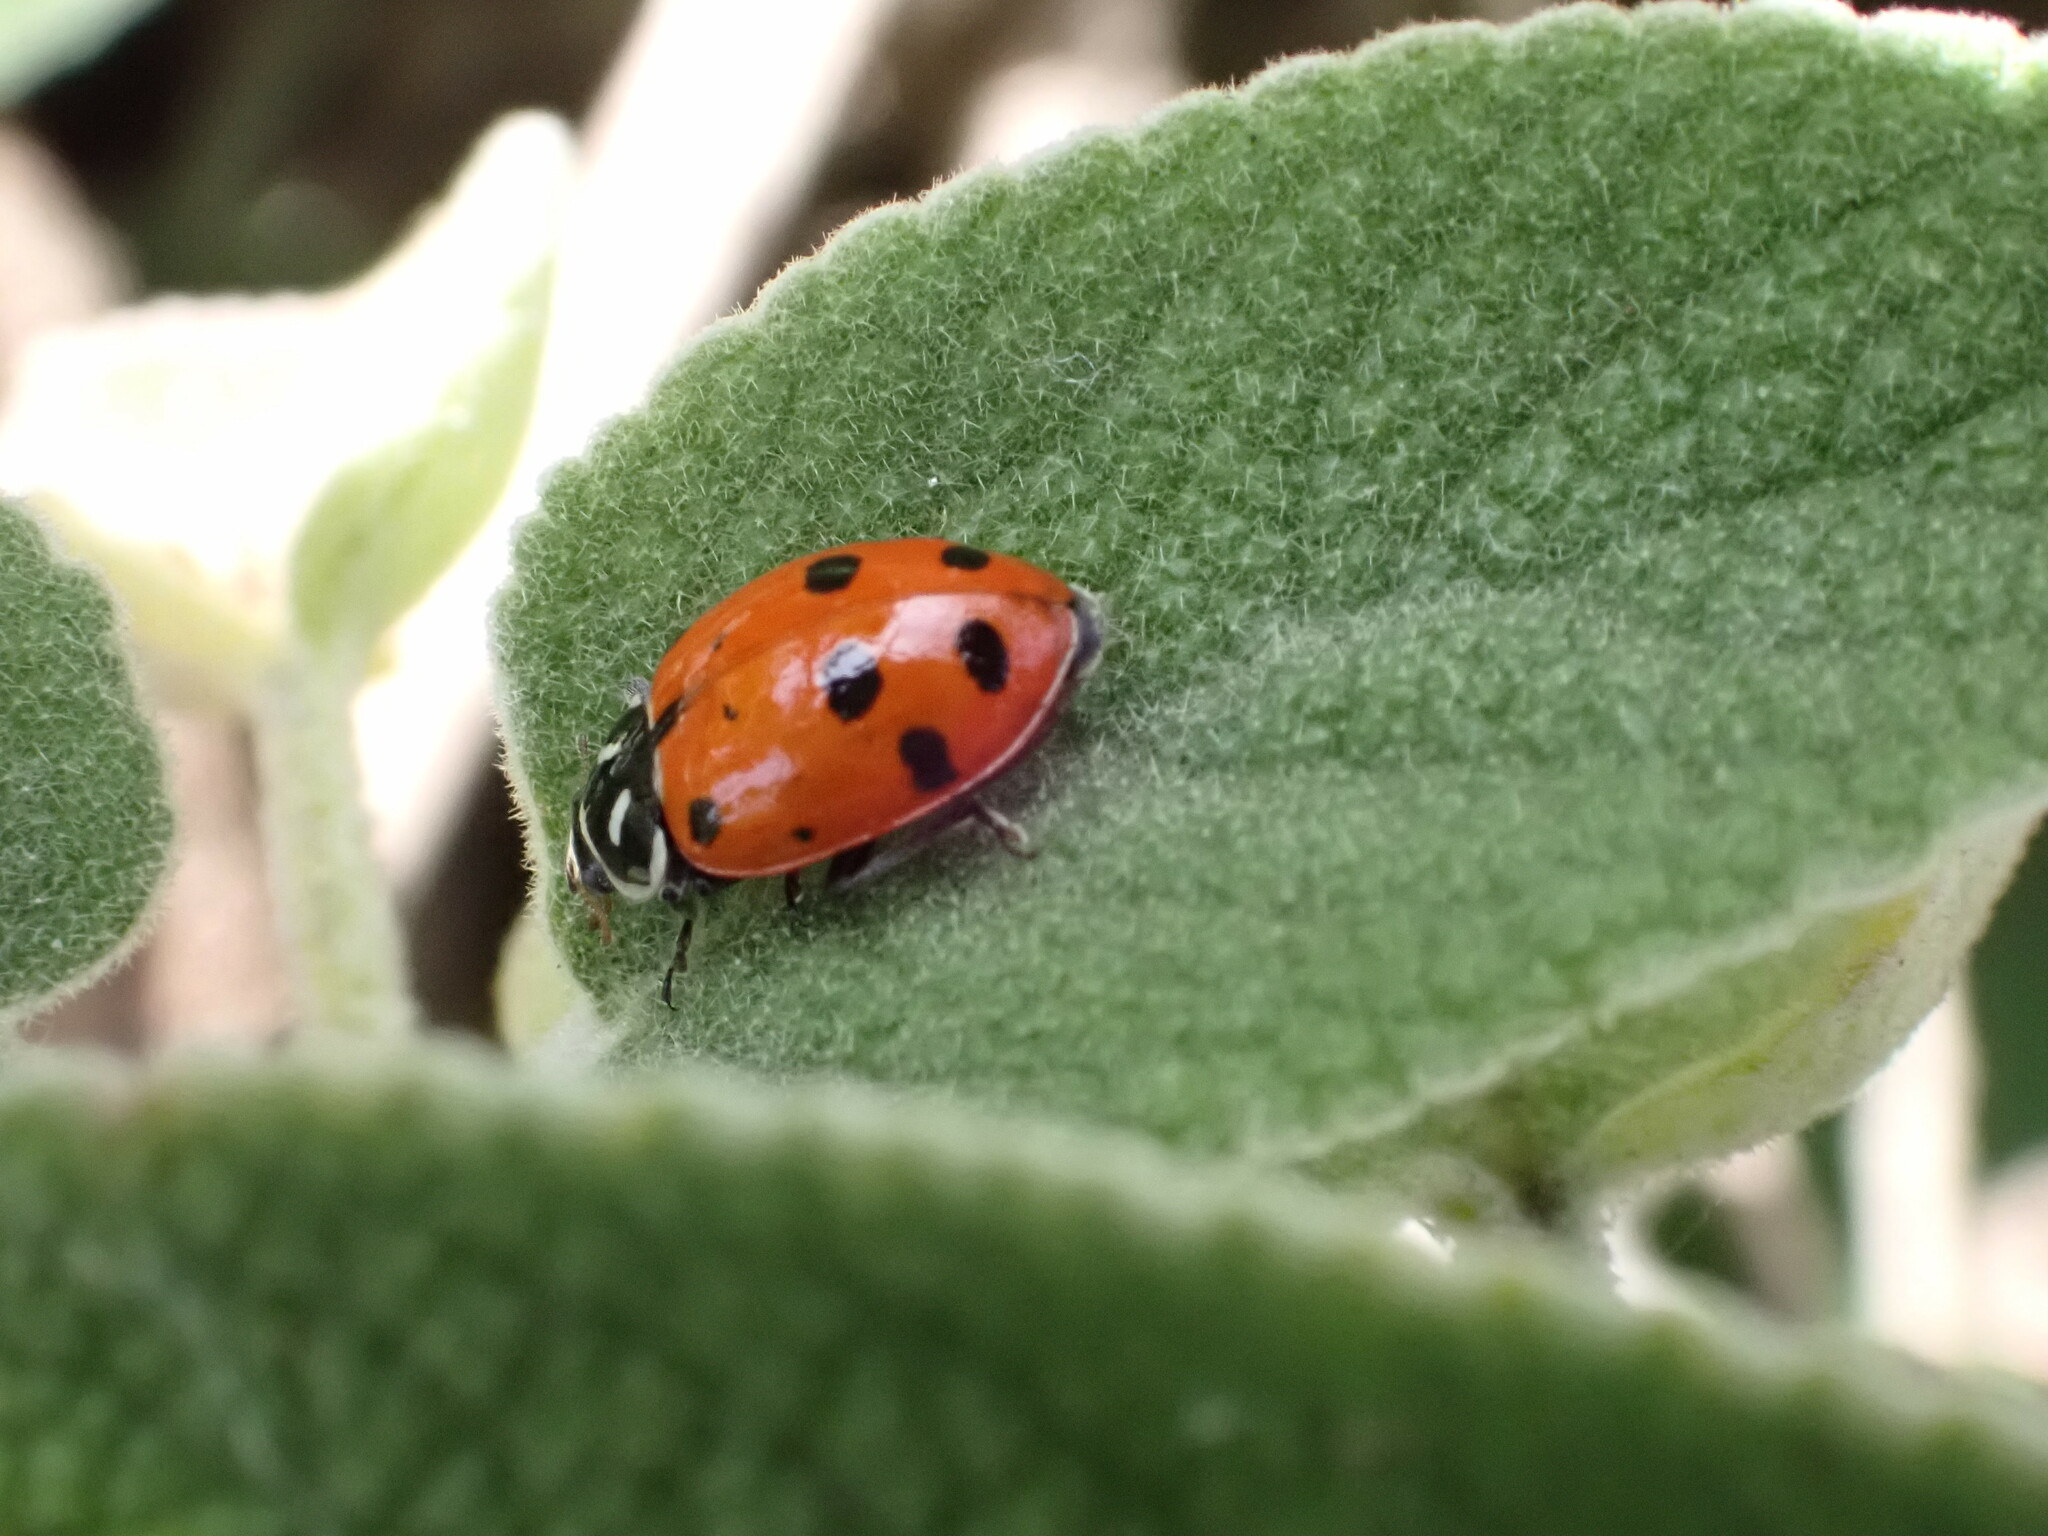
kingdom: Animalia
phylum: Arthropoda
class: Insecta
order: Coleoptera
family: Coccinellidae
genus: Hippodamia
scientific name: Hippodamia convergens
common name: Convergent lady beetle
